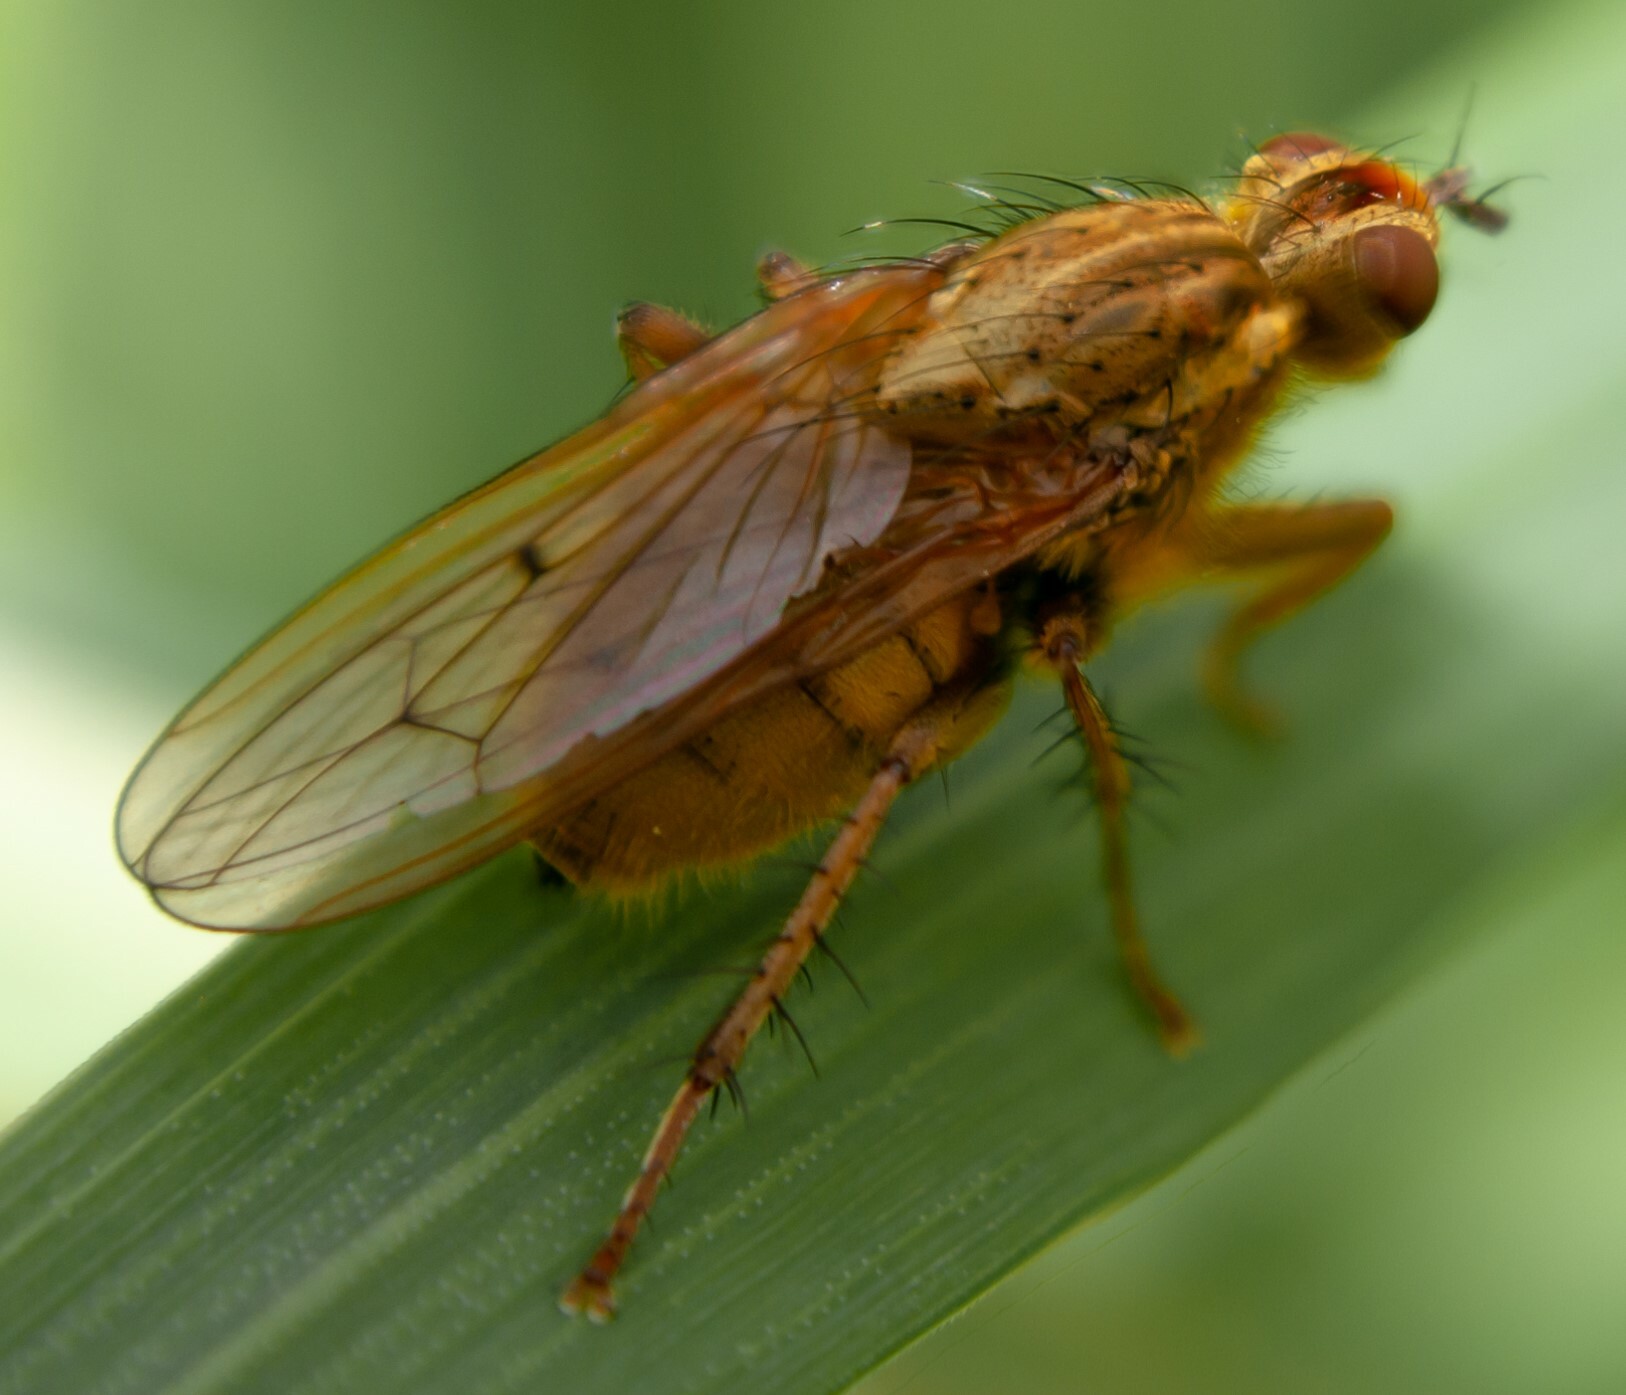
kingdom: Animalia
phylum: Arthropoda
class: Insecta
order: Diptera
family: Scathophagidae
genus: Scathophaga
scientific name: Scathophaga stercoraria
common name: Yellow dung fly
